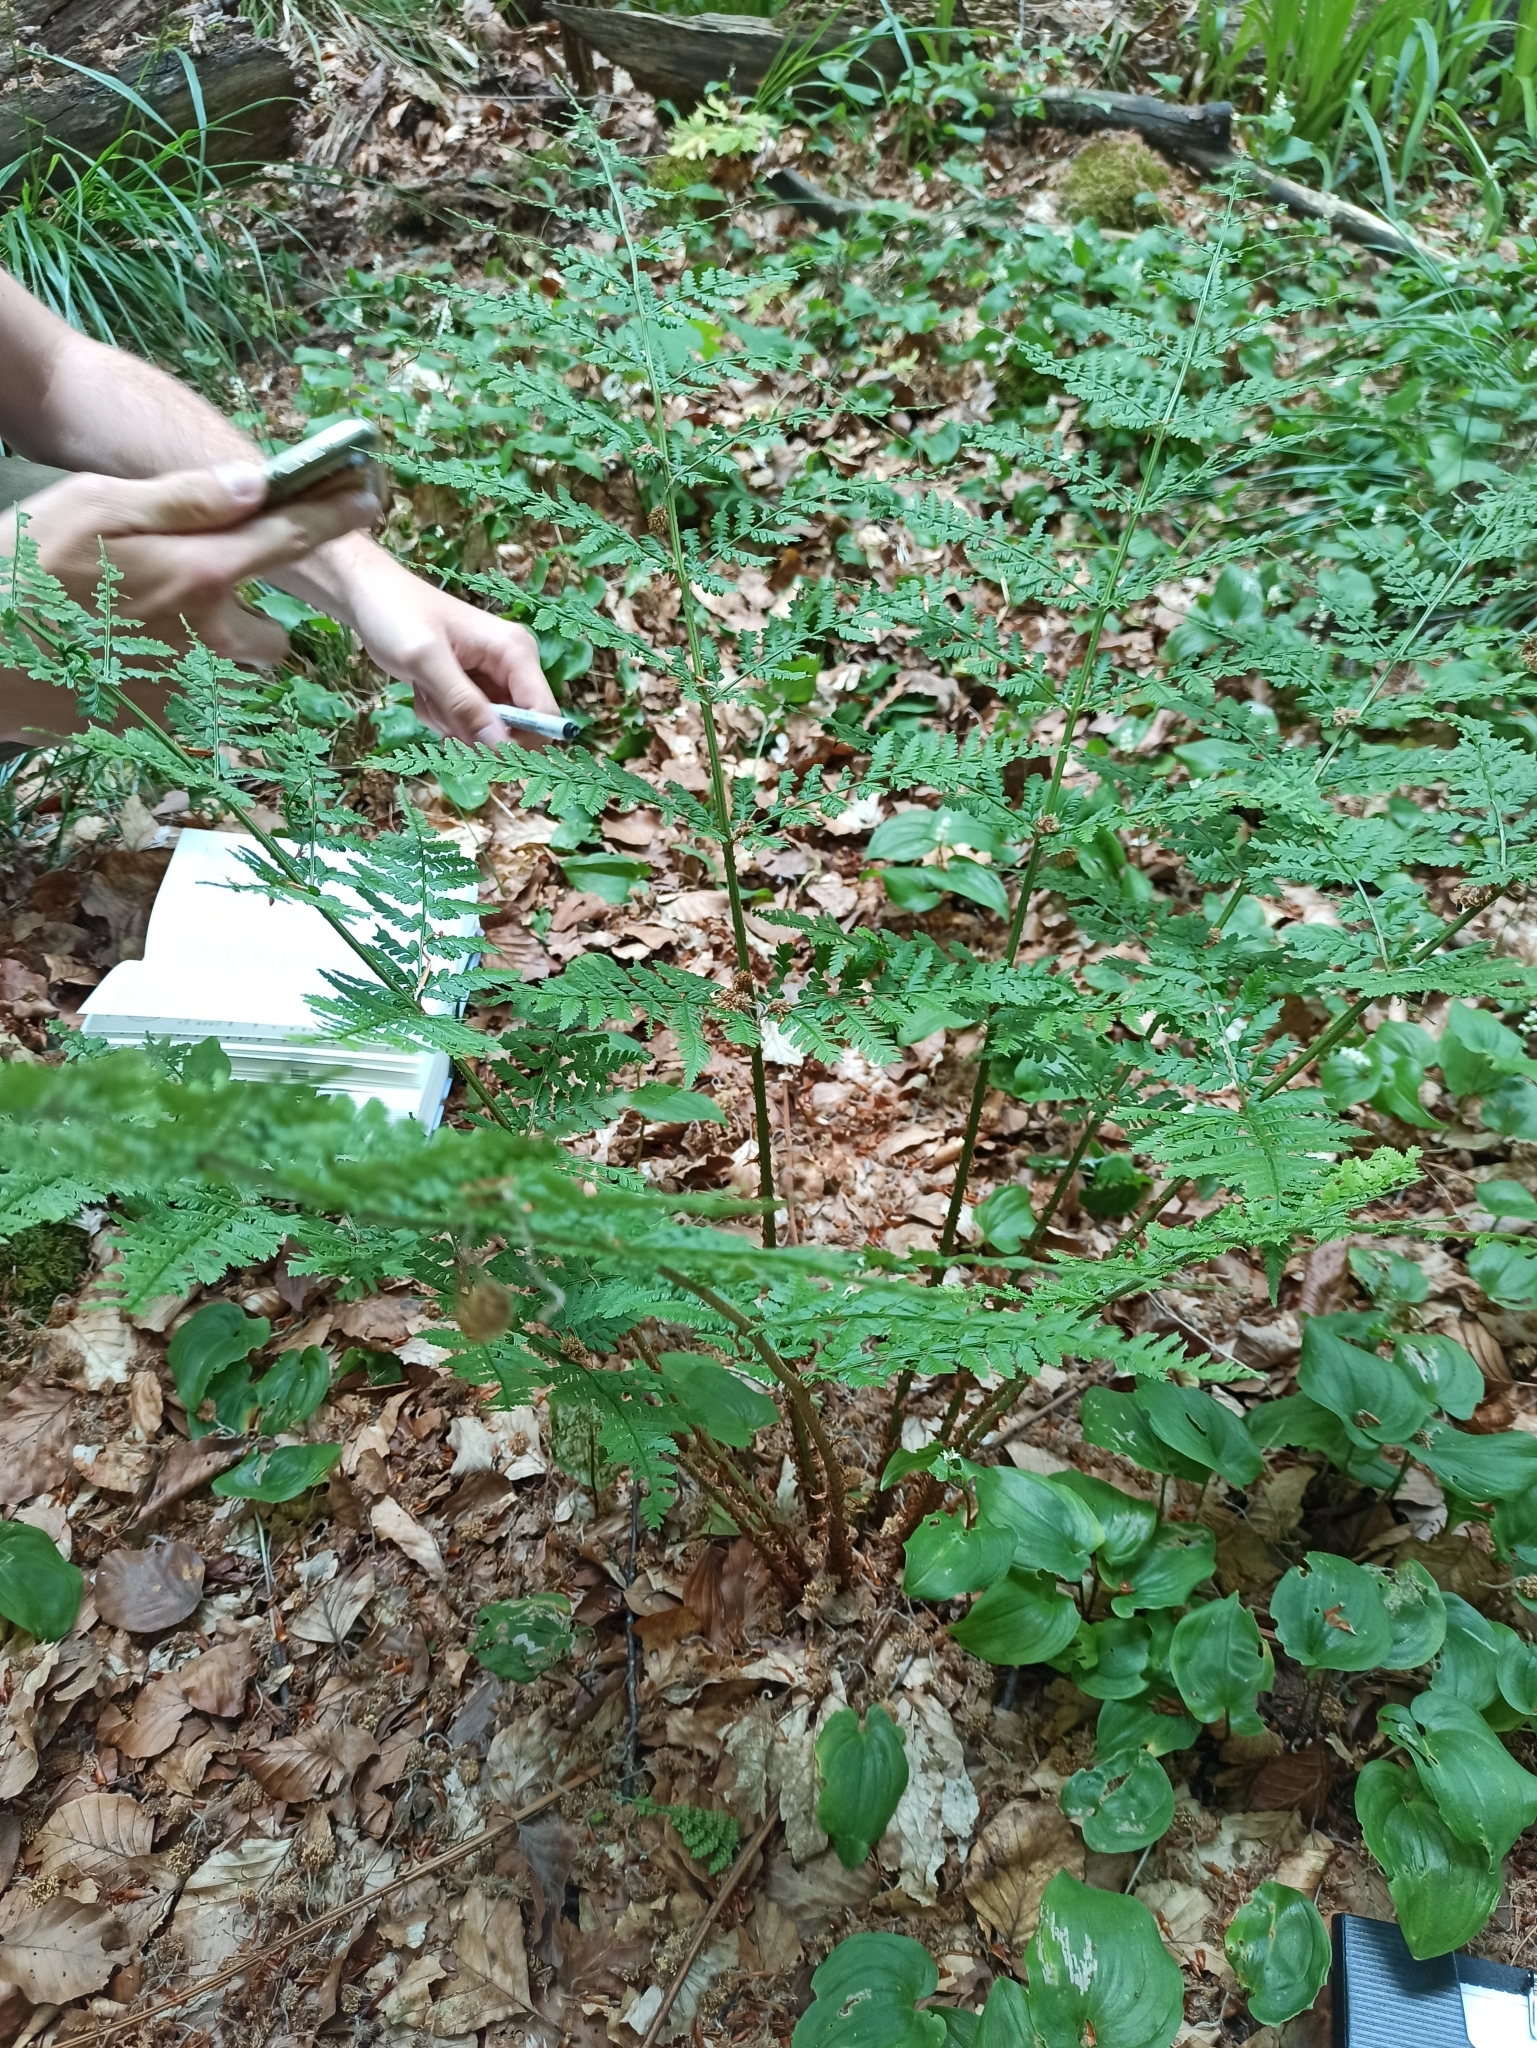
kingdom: Plantae
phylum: Tracheophyta
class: Polypodiopsida
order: Polypodiales
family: Dryopteridaceae
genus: Dryopteris
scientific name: Dryopteris dilatata
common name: Broad buckler-fern
